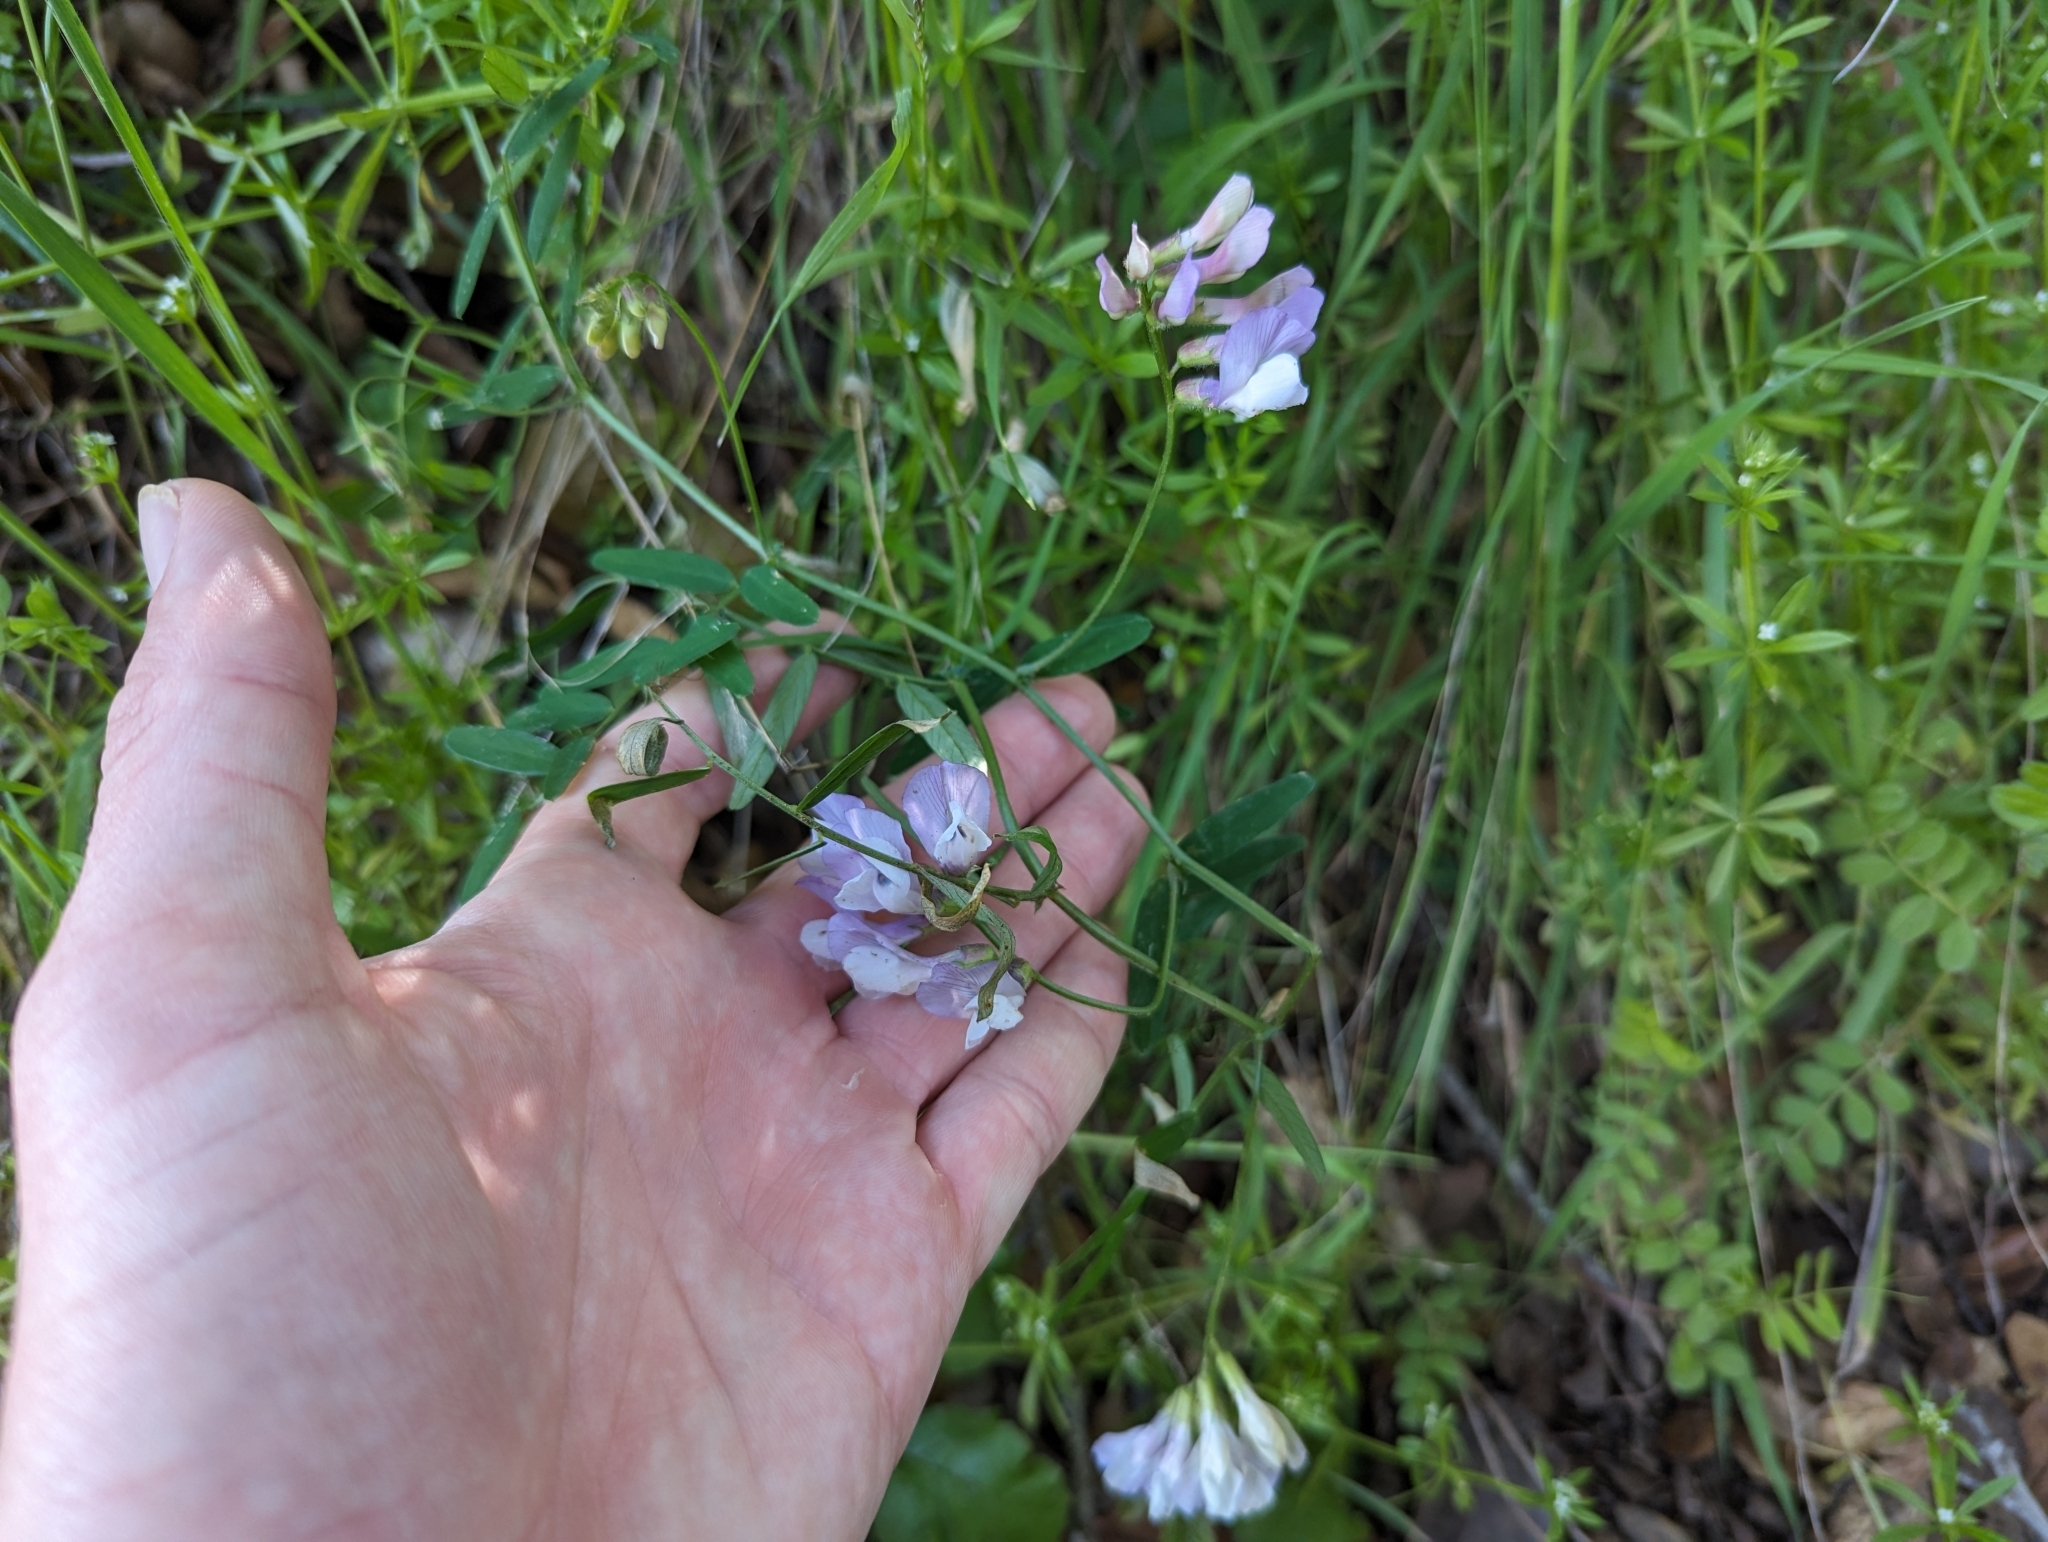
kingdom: Plantae
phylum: Tracheophyta
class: Magnoliopsida
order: Fabales
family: Fabaceae
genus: Vicia
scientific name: Vicia americana
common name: American vetch
